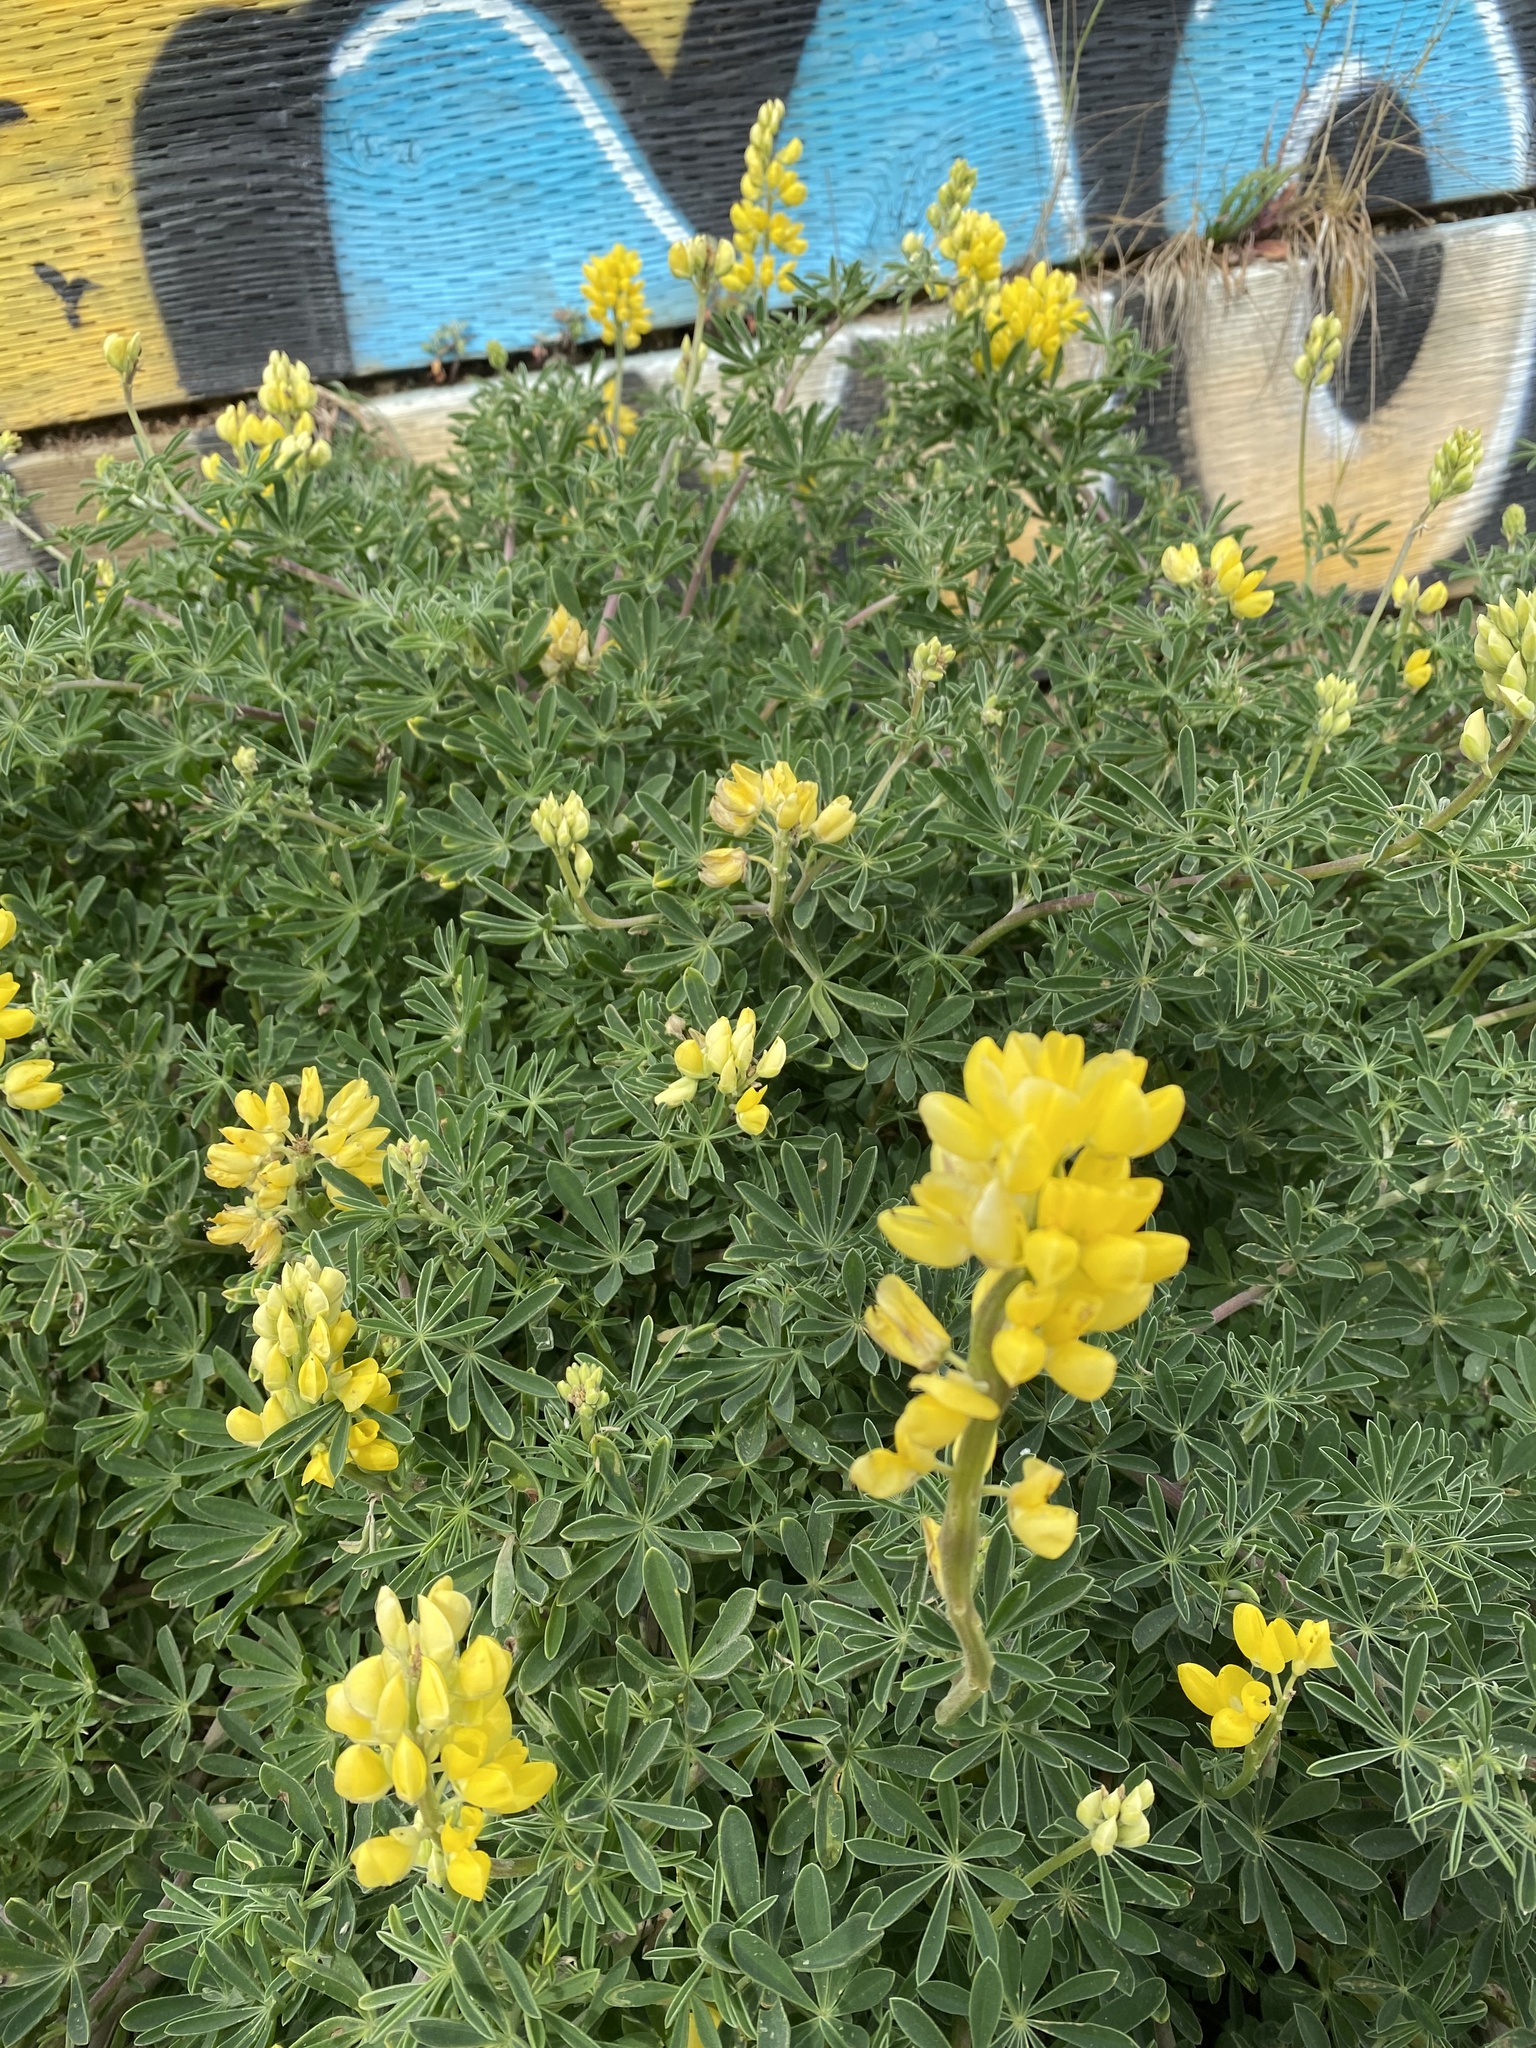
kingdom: Plantae
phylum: Tracheophyta
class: Magnoliopsida
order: Fabales
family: Fabaceae
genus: Lupinus
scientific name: Lupinus arboreus
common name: Yellow bush lupine
